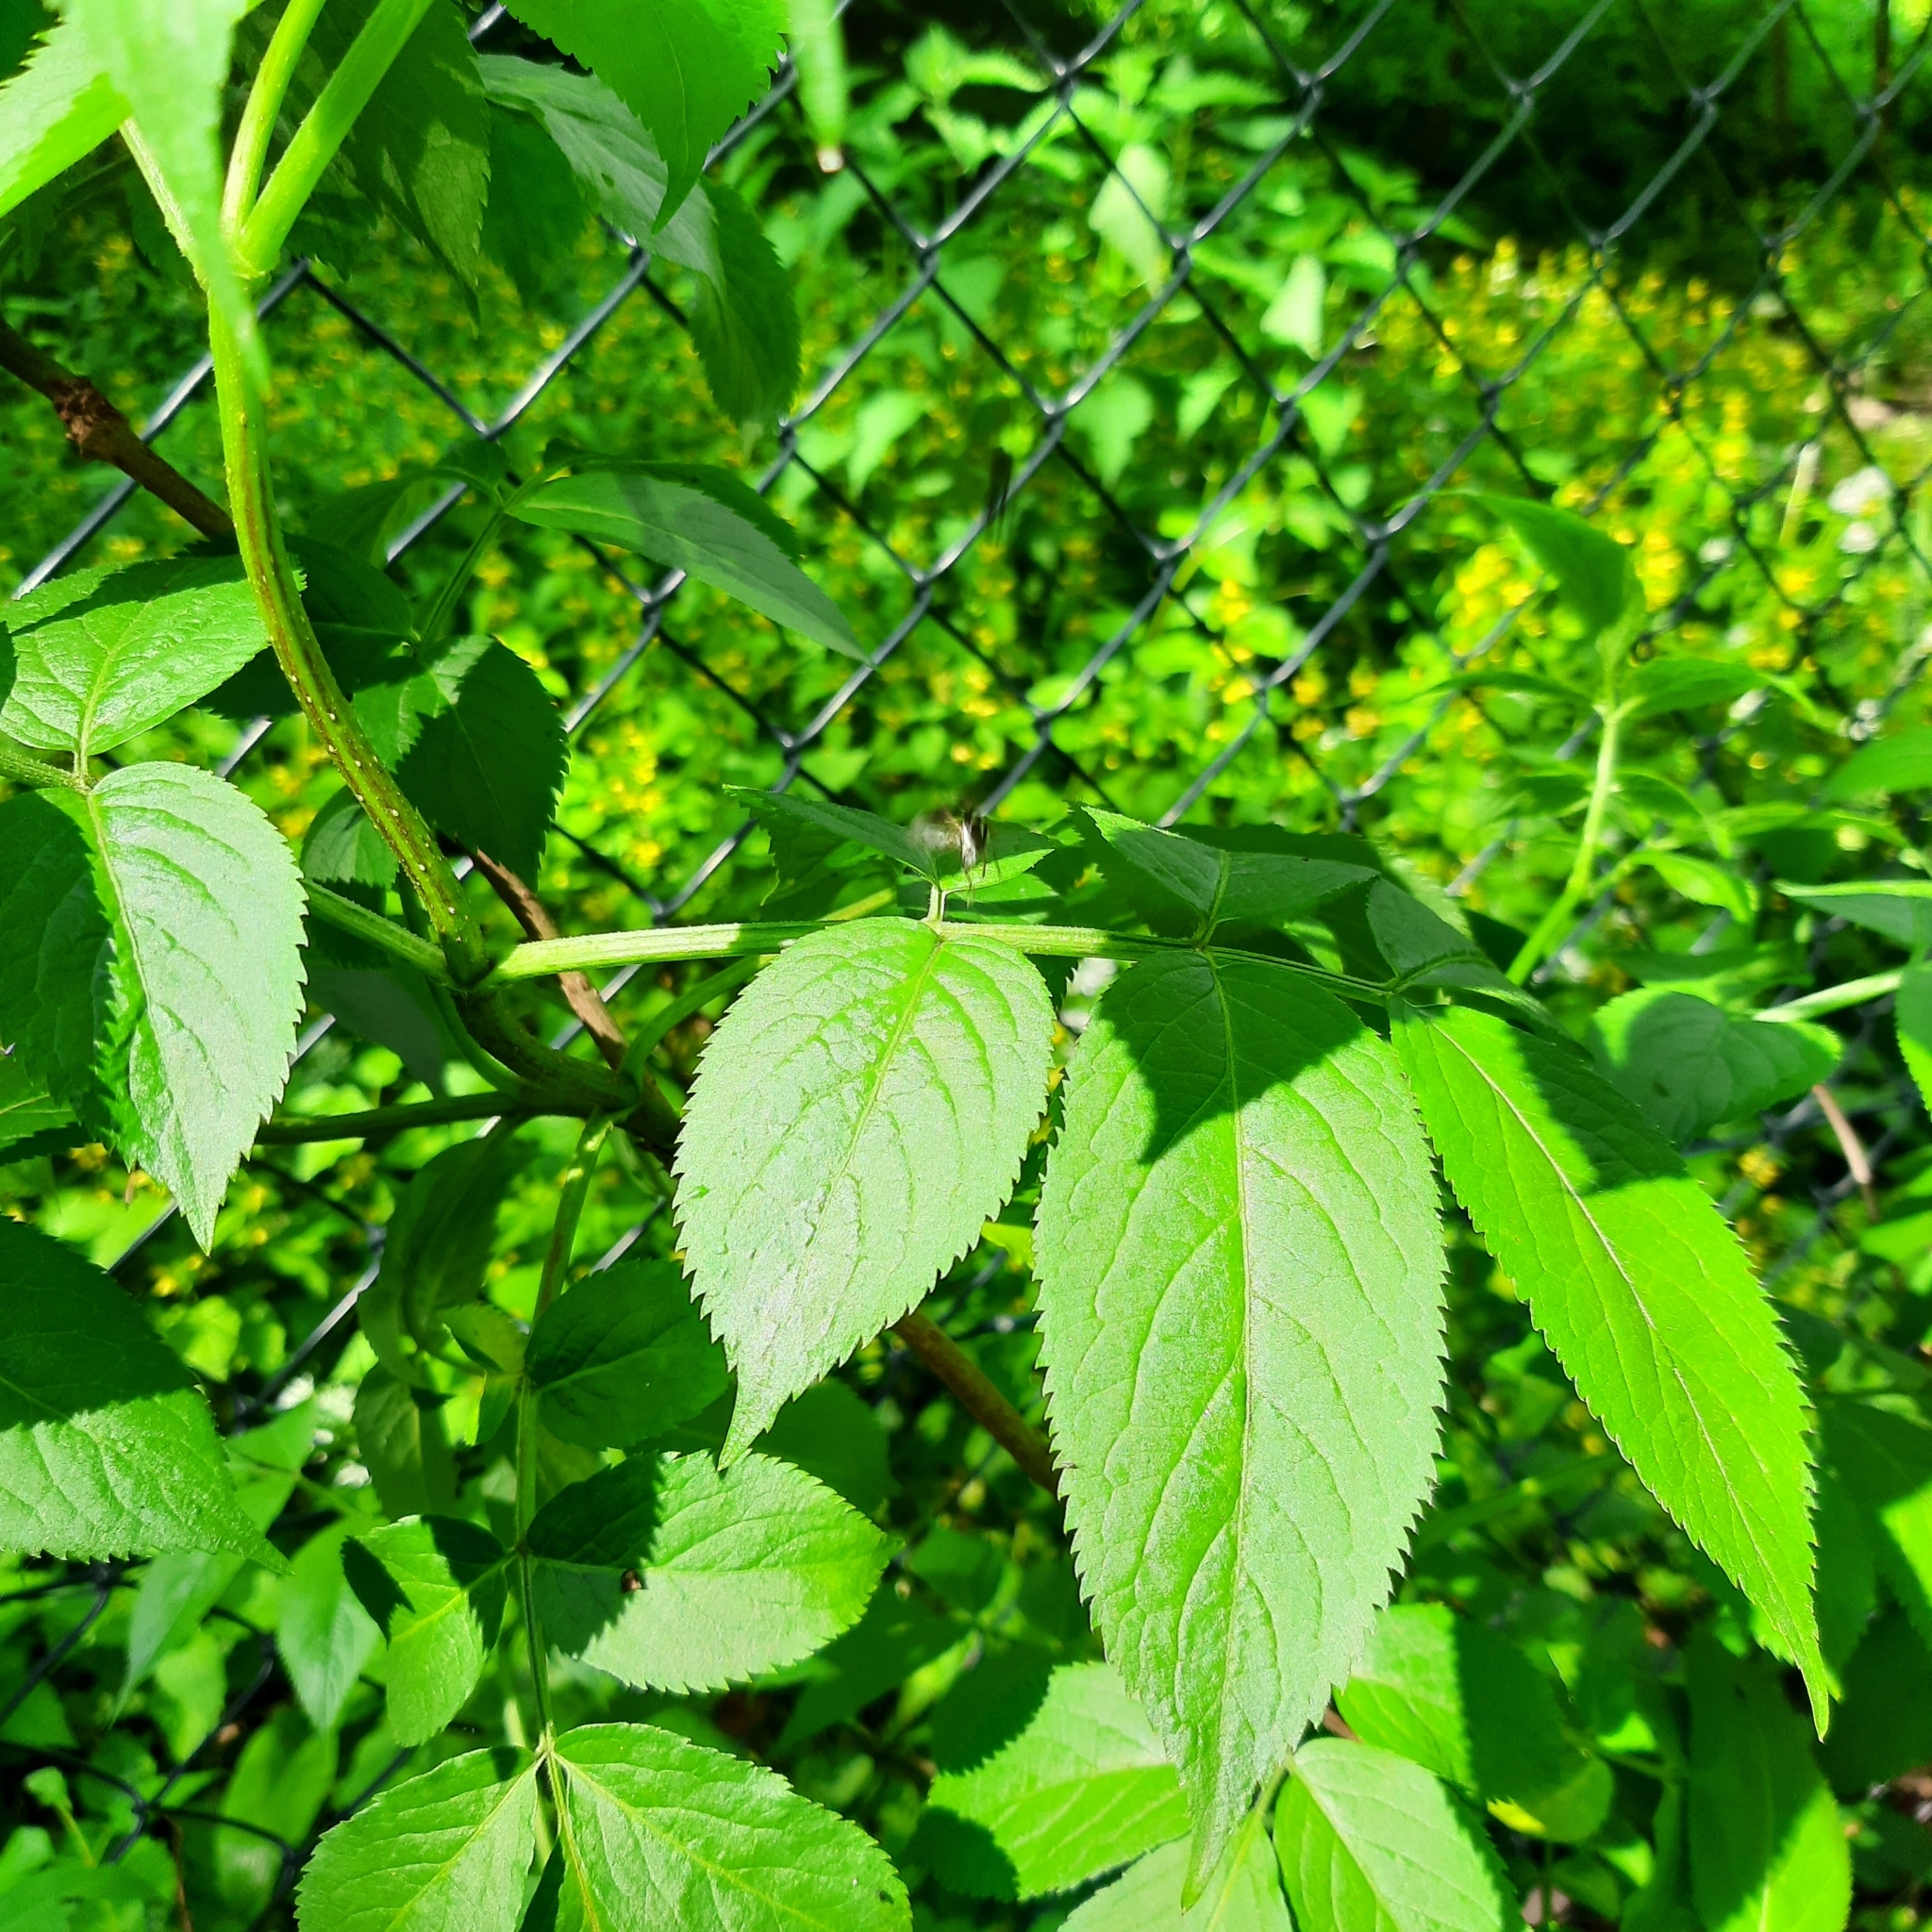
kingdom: Plantae
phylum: Tracheophyta
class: Magnoliopsida
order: Dipsacales
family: Viburnaceae
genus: Sambucus
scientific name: Sambucus nigra
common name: Elder
